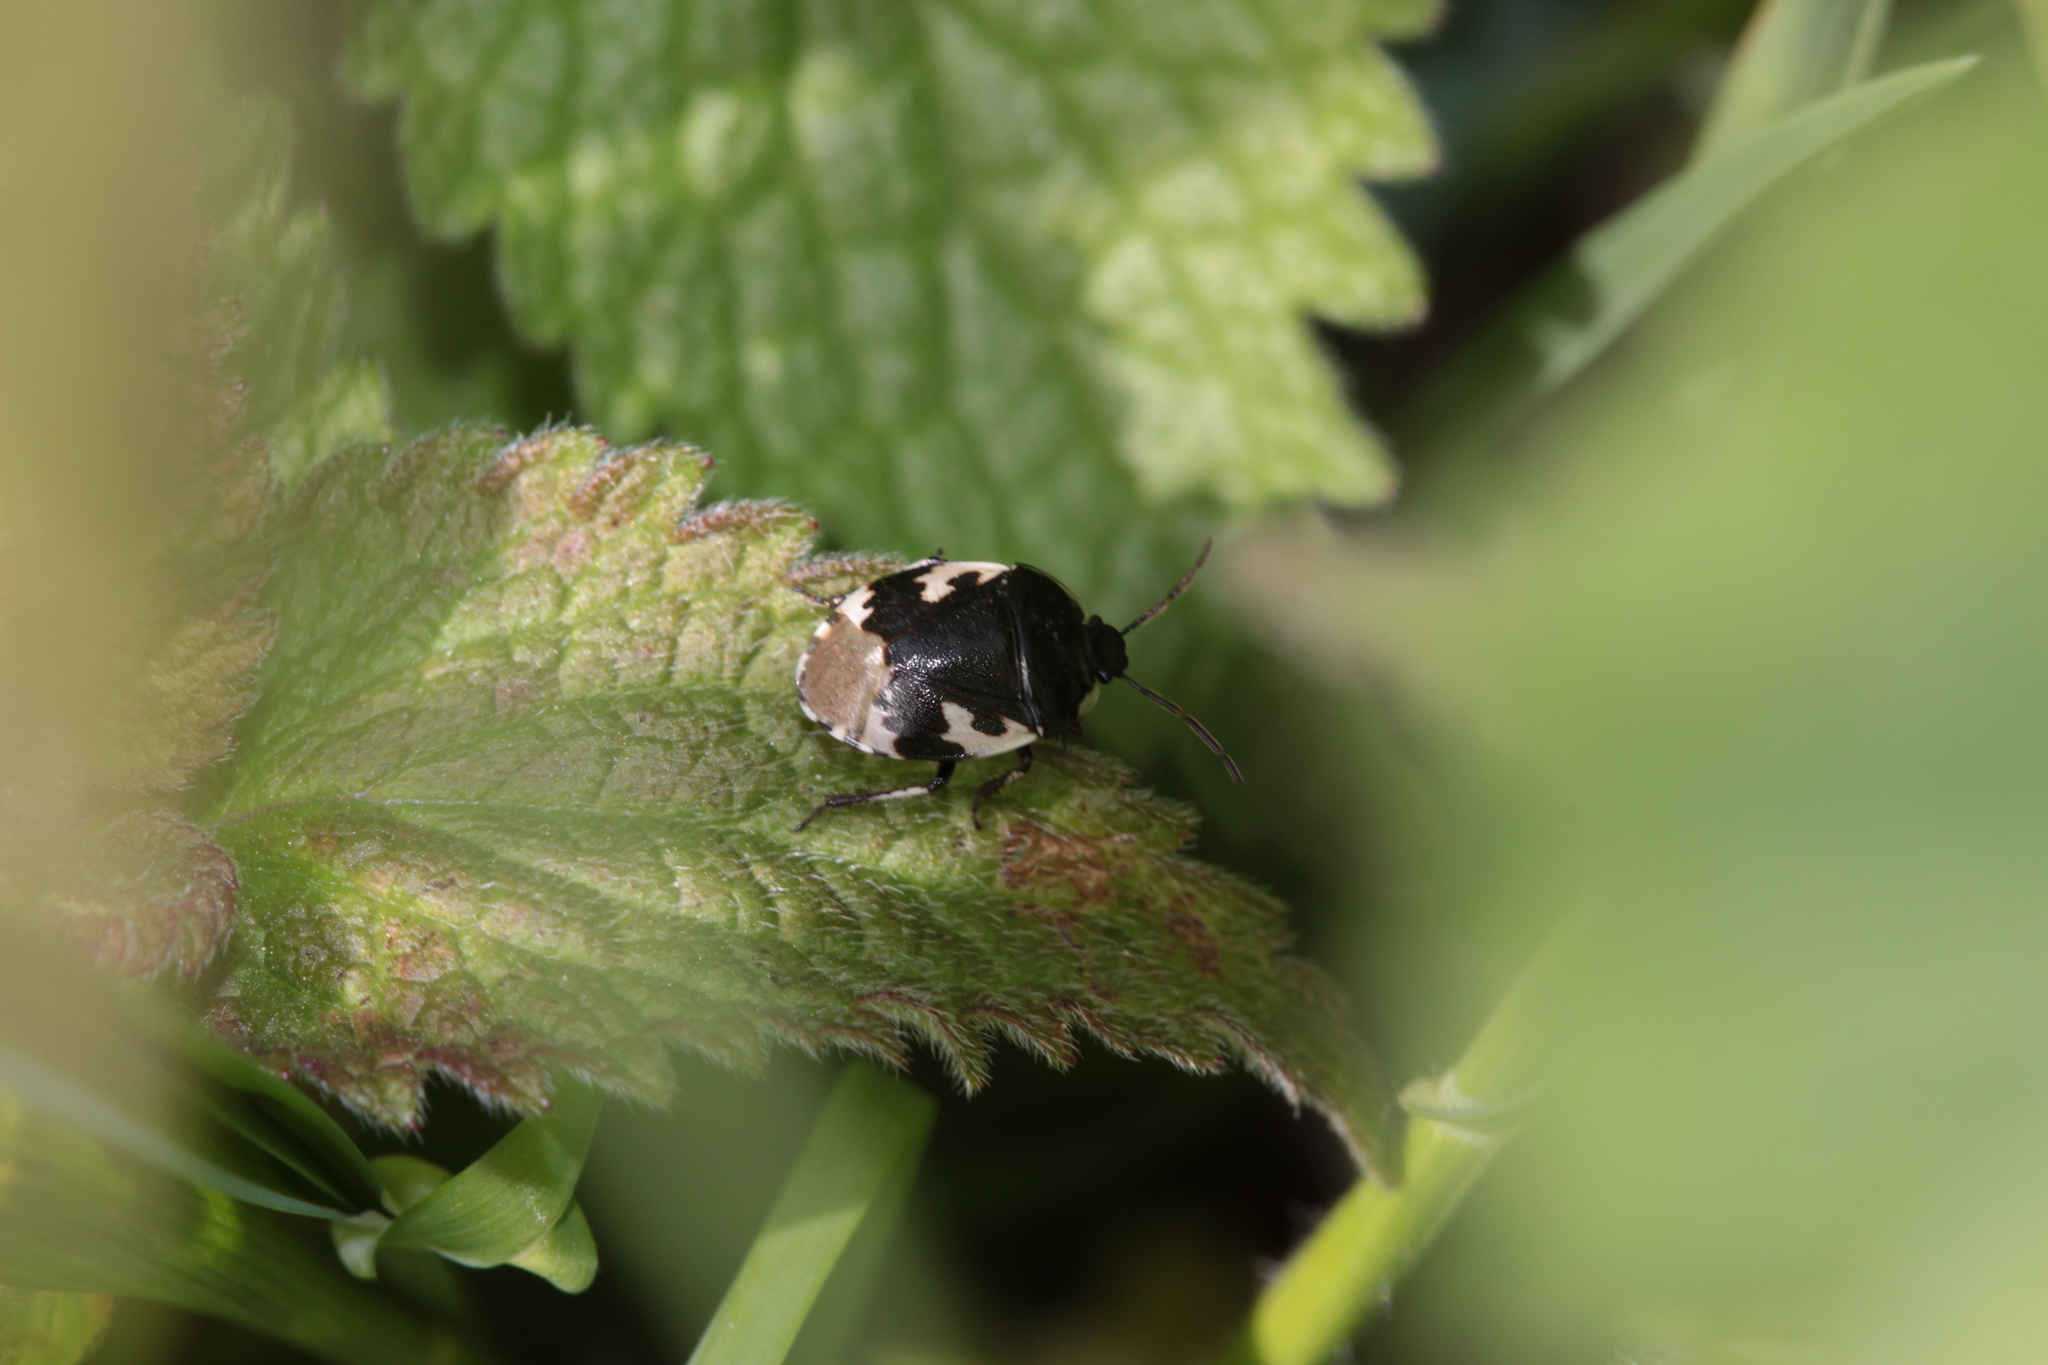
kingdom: Animalia
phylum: Arthropoda
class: Insecta
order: Hemiptera
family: Cydnidae
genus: Tritomegas
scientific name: Tritomegas bicolor
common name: Pied shieldbug
